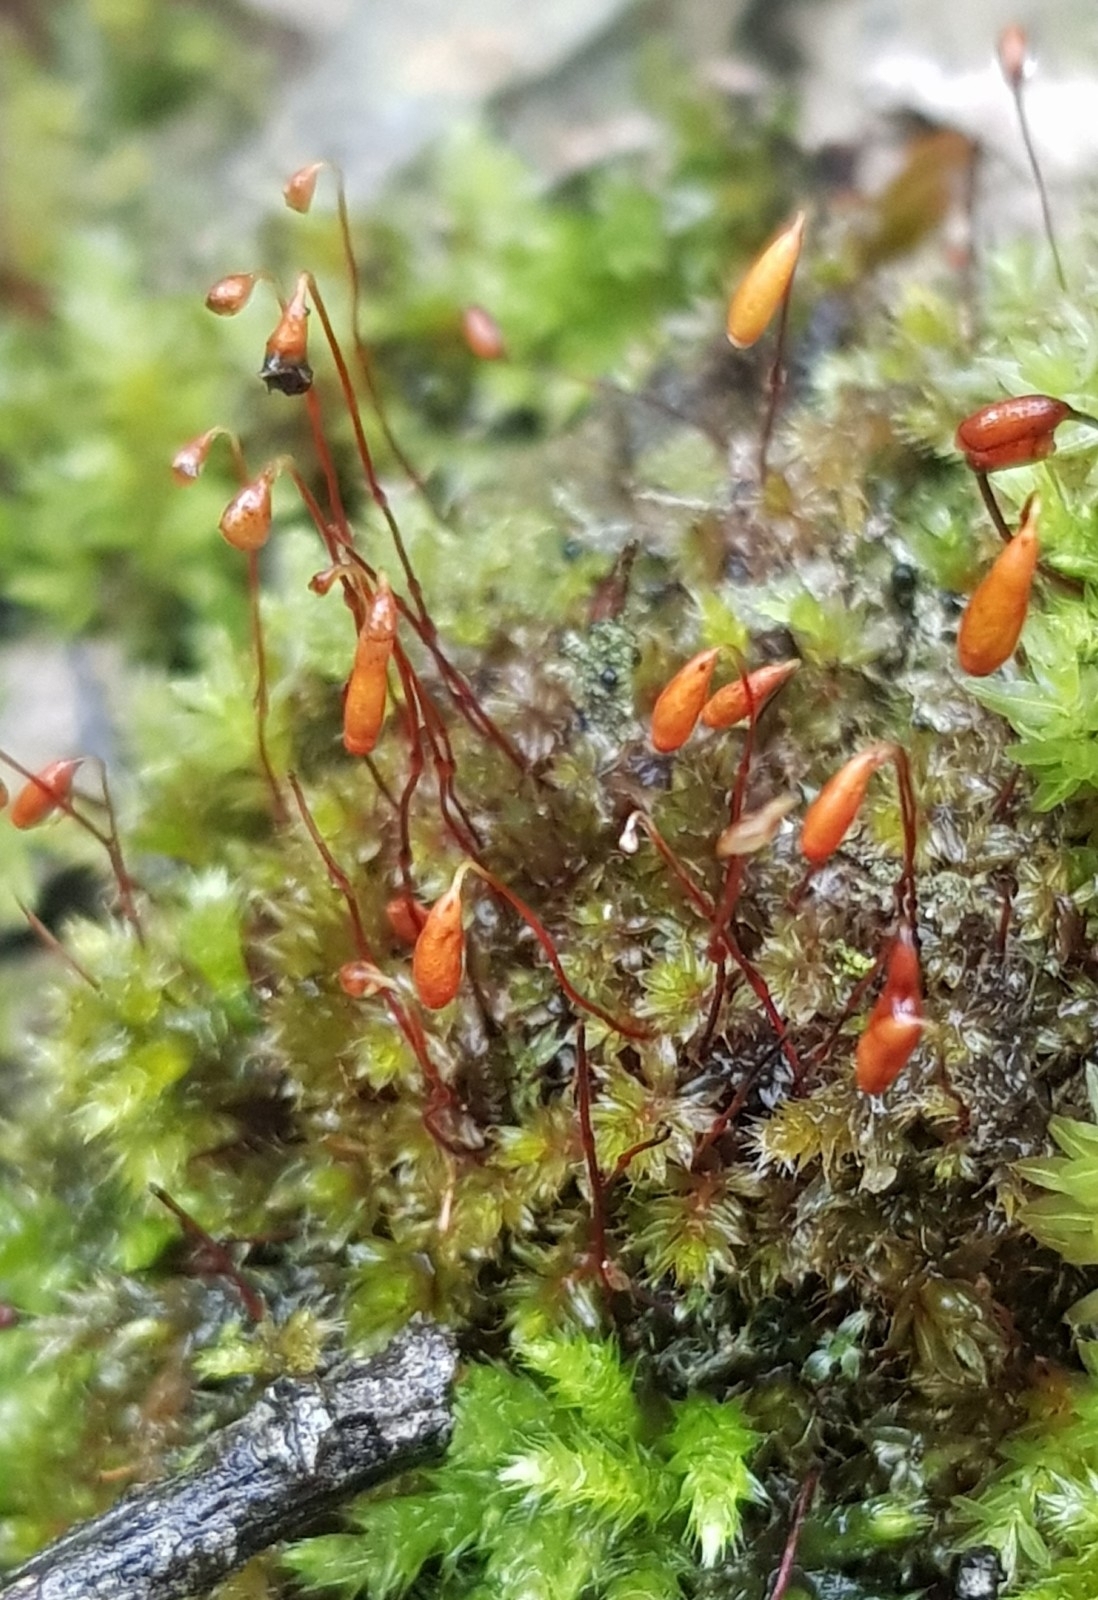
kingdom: Plantae
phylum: Bryophyta
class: Bryopsida
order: Bryales
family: Mniaceae
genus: Mnium
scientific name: Mnium stellare
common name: Star leafy moss
